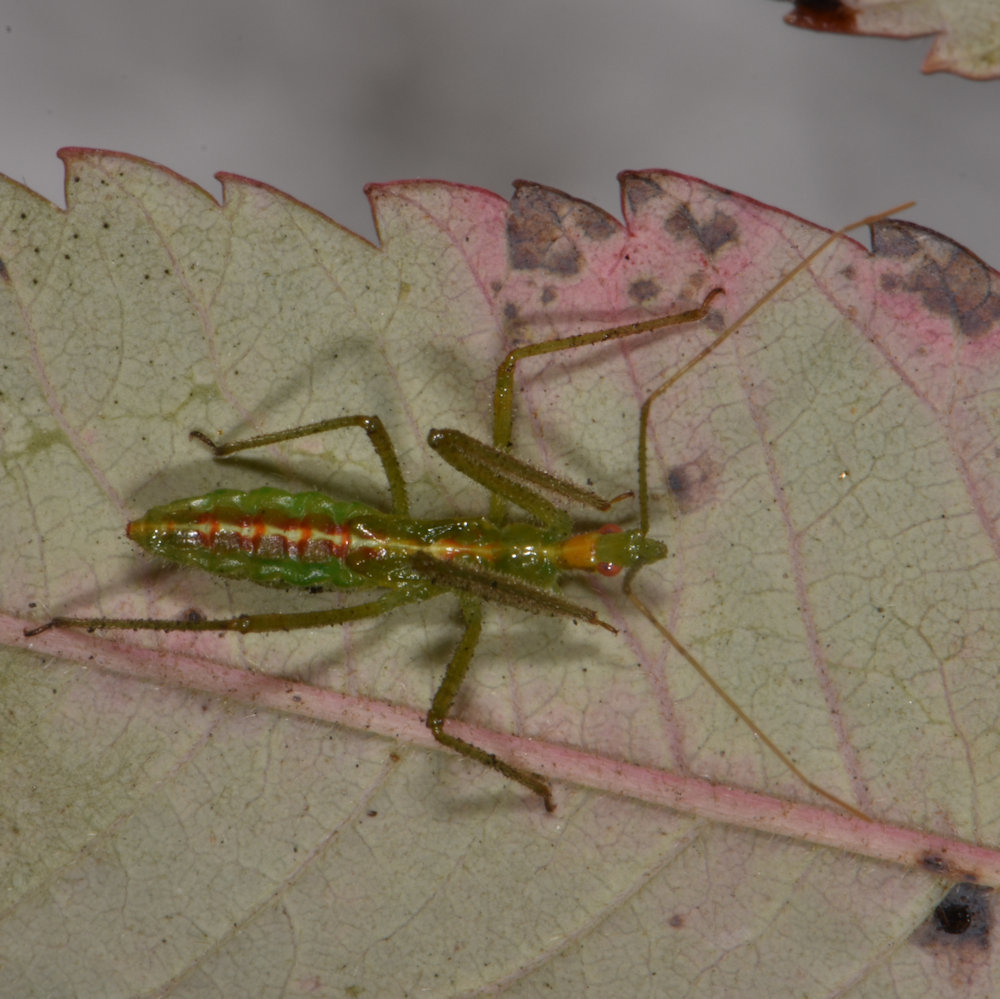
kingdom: Animalia
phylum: Arthropoda
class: Insecta
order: Hemiptera
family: Reduviidae
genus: Zelus
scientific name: Zelus luridus
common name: Pale green assassin bug
